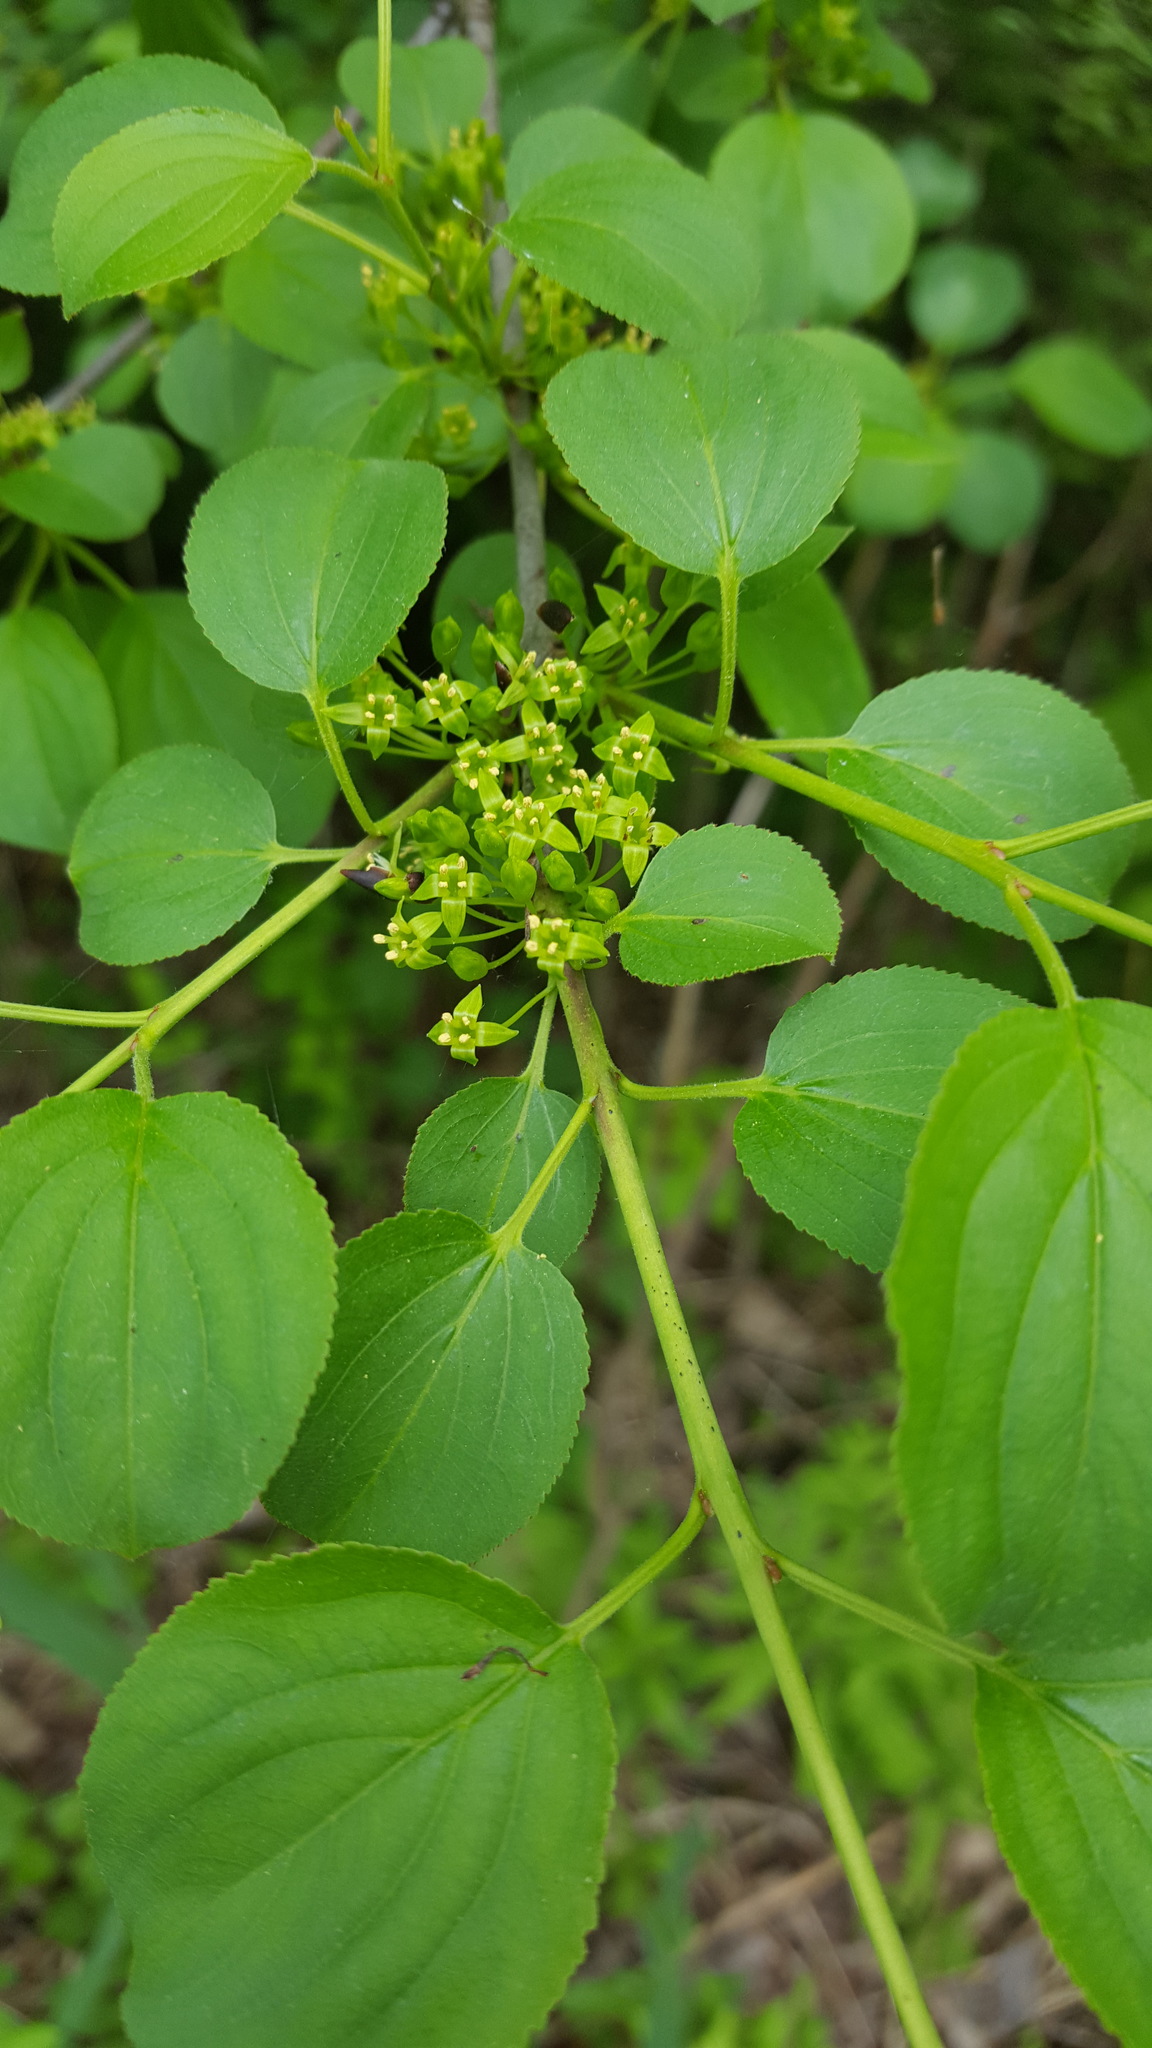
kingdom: Plantae
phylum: Tracheophyta
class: Magnoliopsida
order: Rosales
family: Rhamnaceae
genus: Rhamnus
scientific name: Rhamnus cathartica
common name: Common buckthorn
